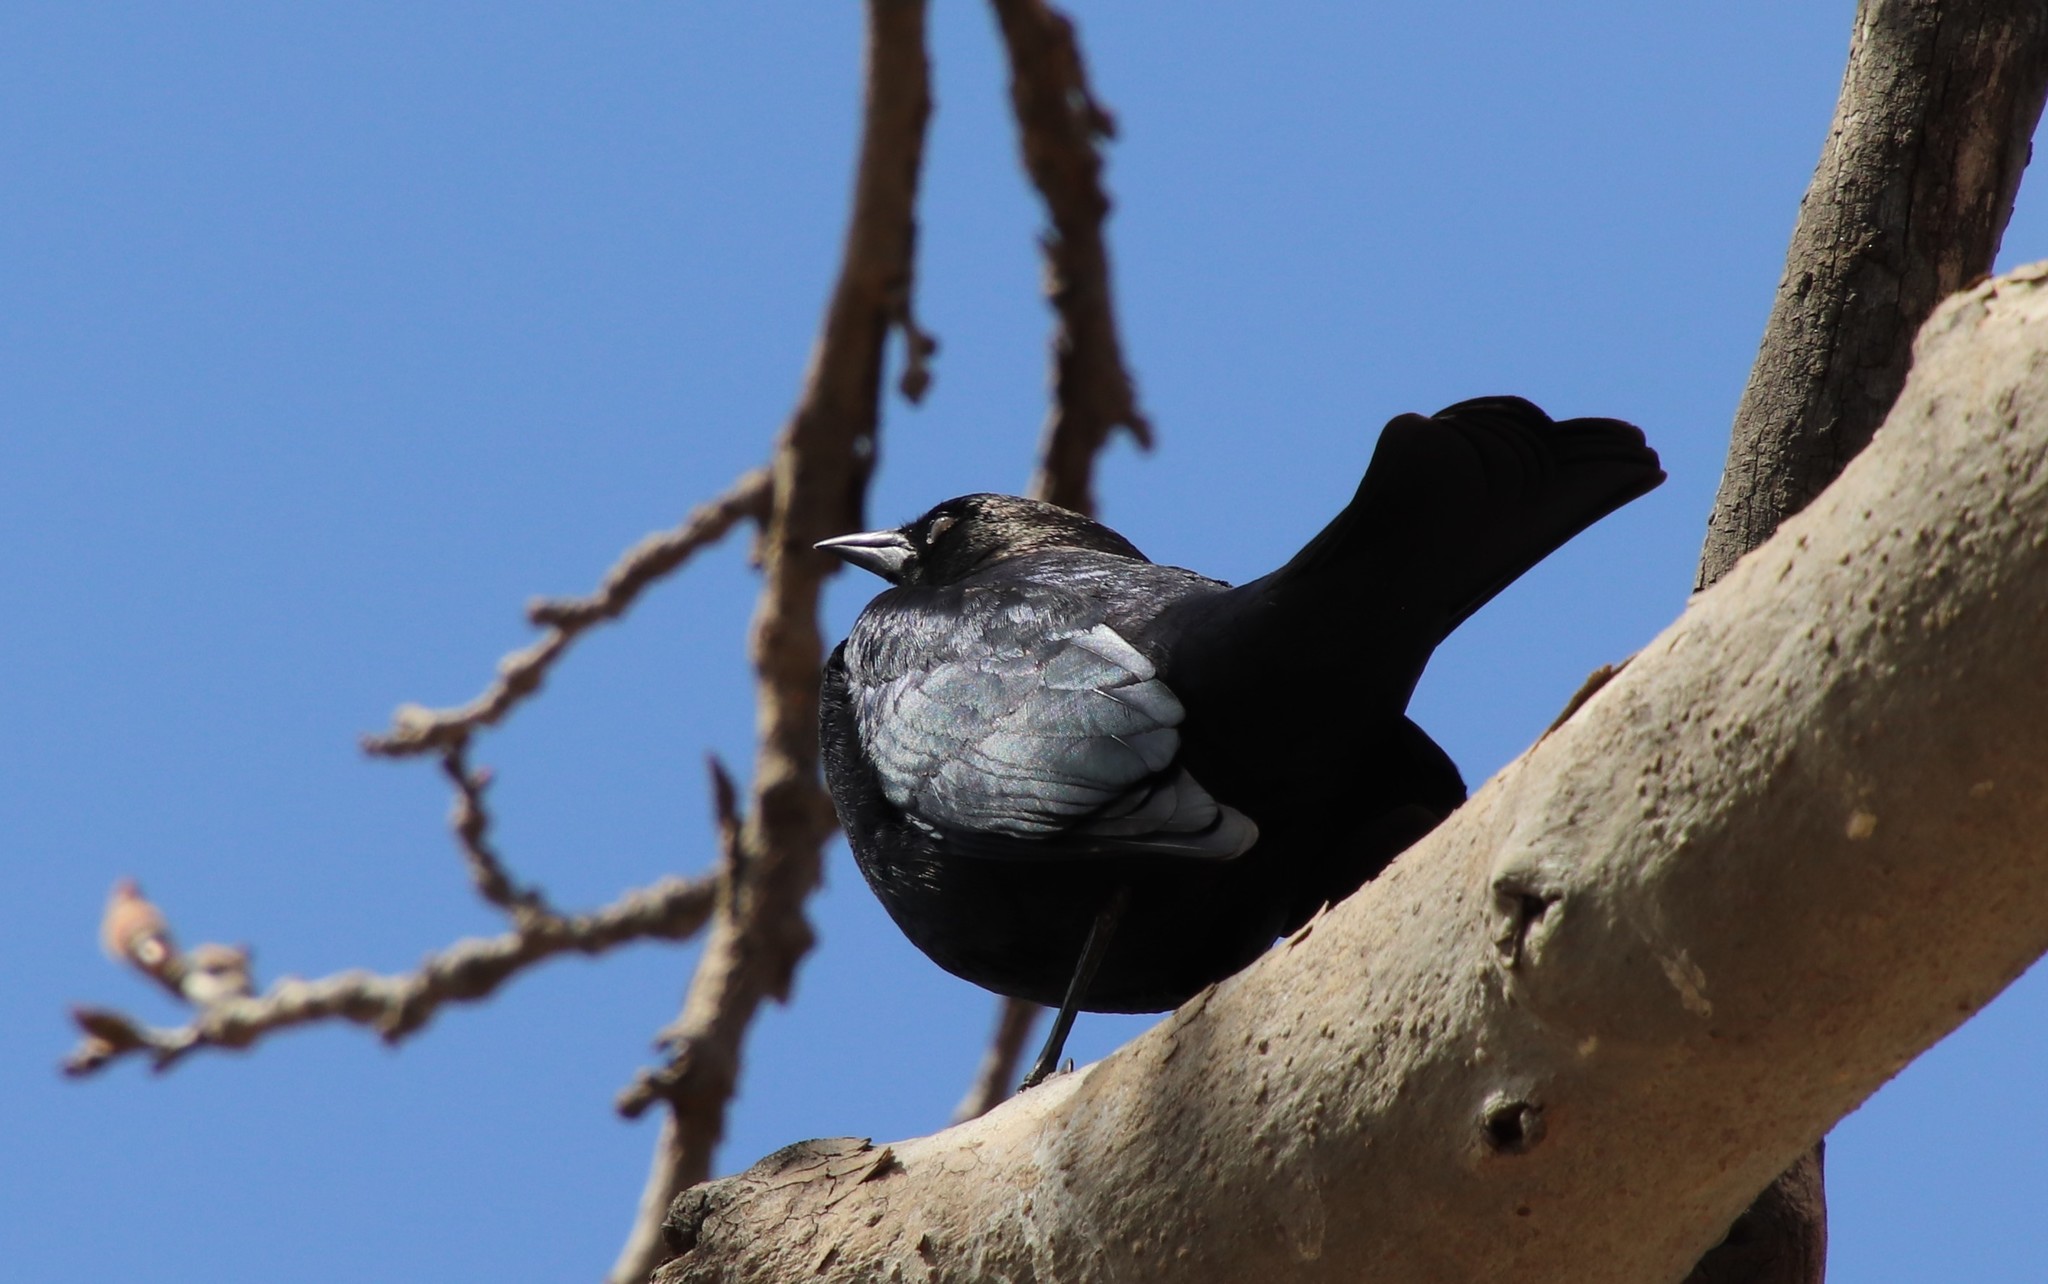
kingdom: Animalia
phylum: Chordata
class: Aves
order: Passeriformes
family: Icteridae
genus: Euphagus
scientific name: Euphagus cyanocephalus
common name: Brewer's blackbird
